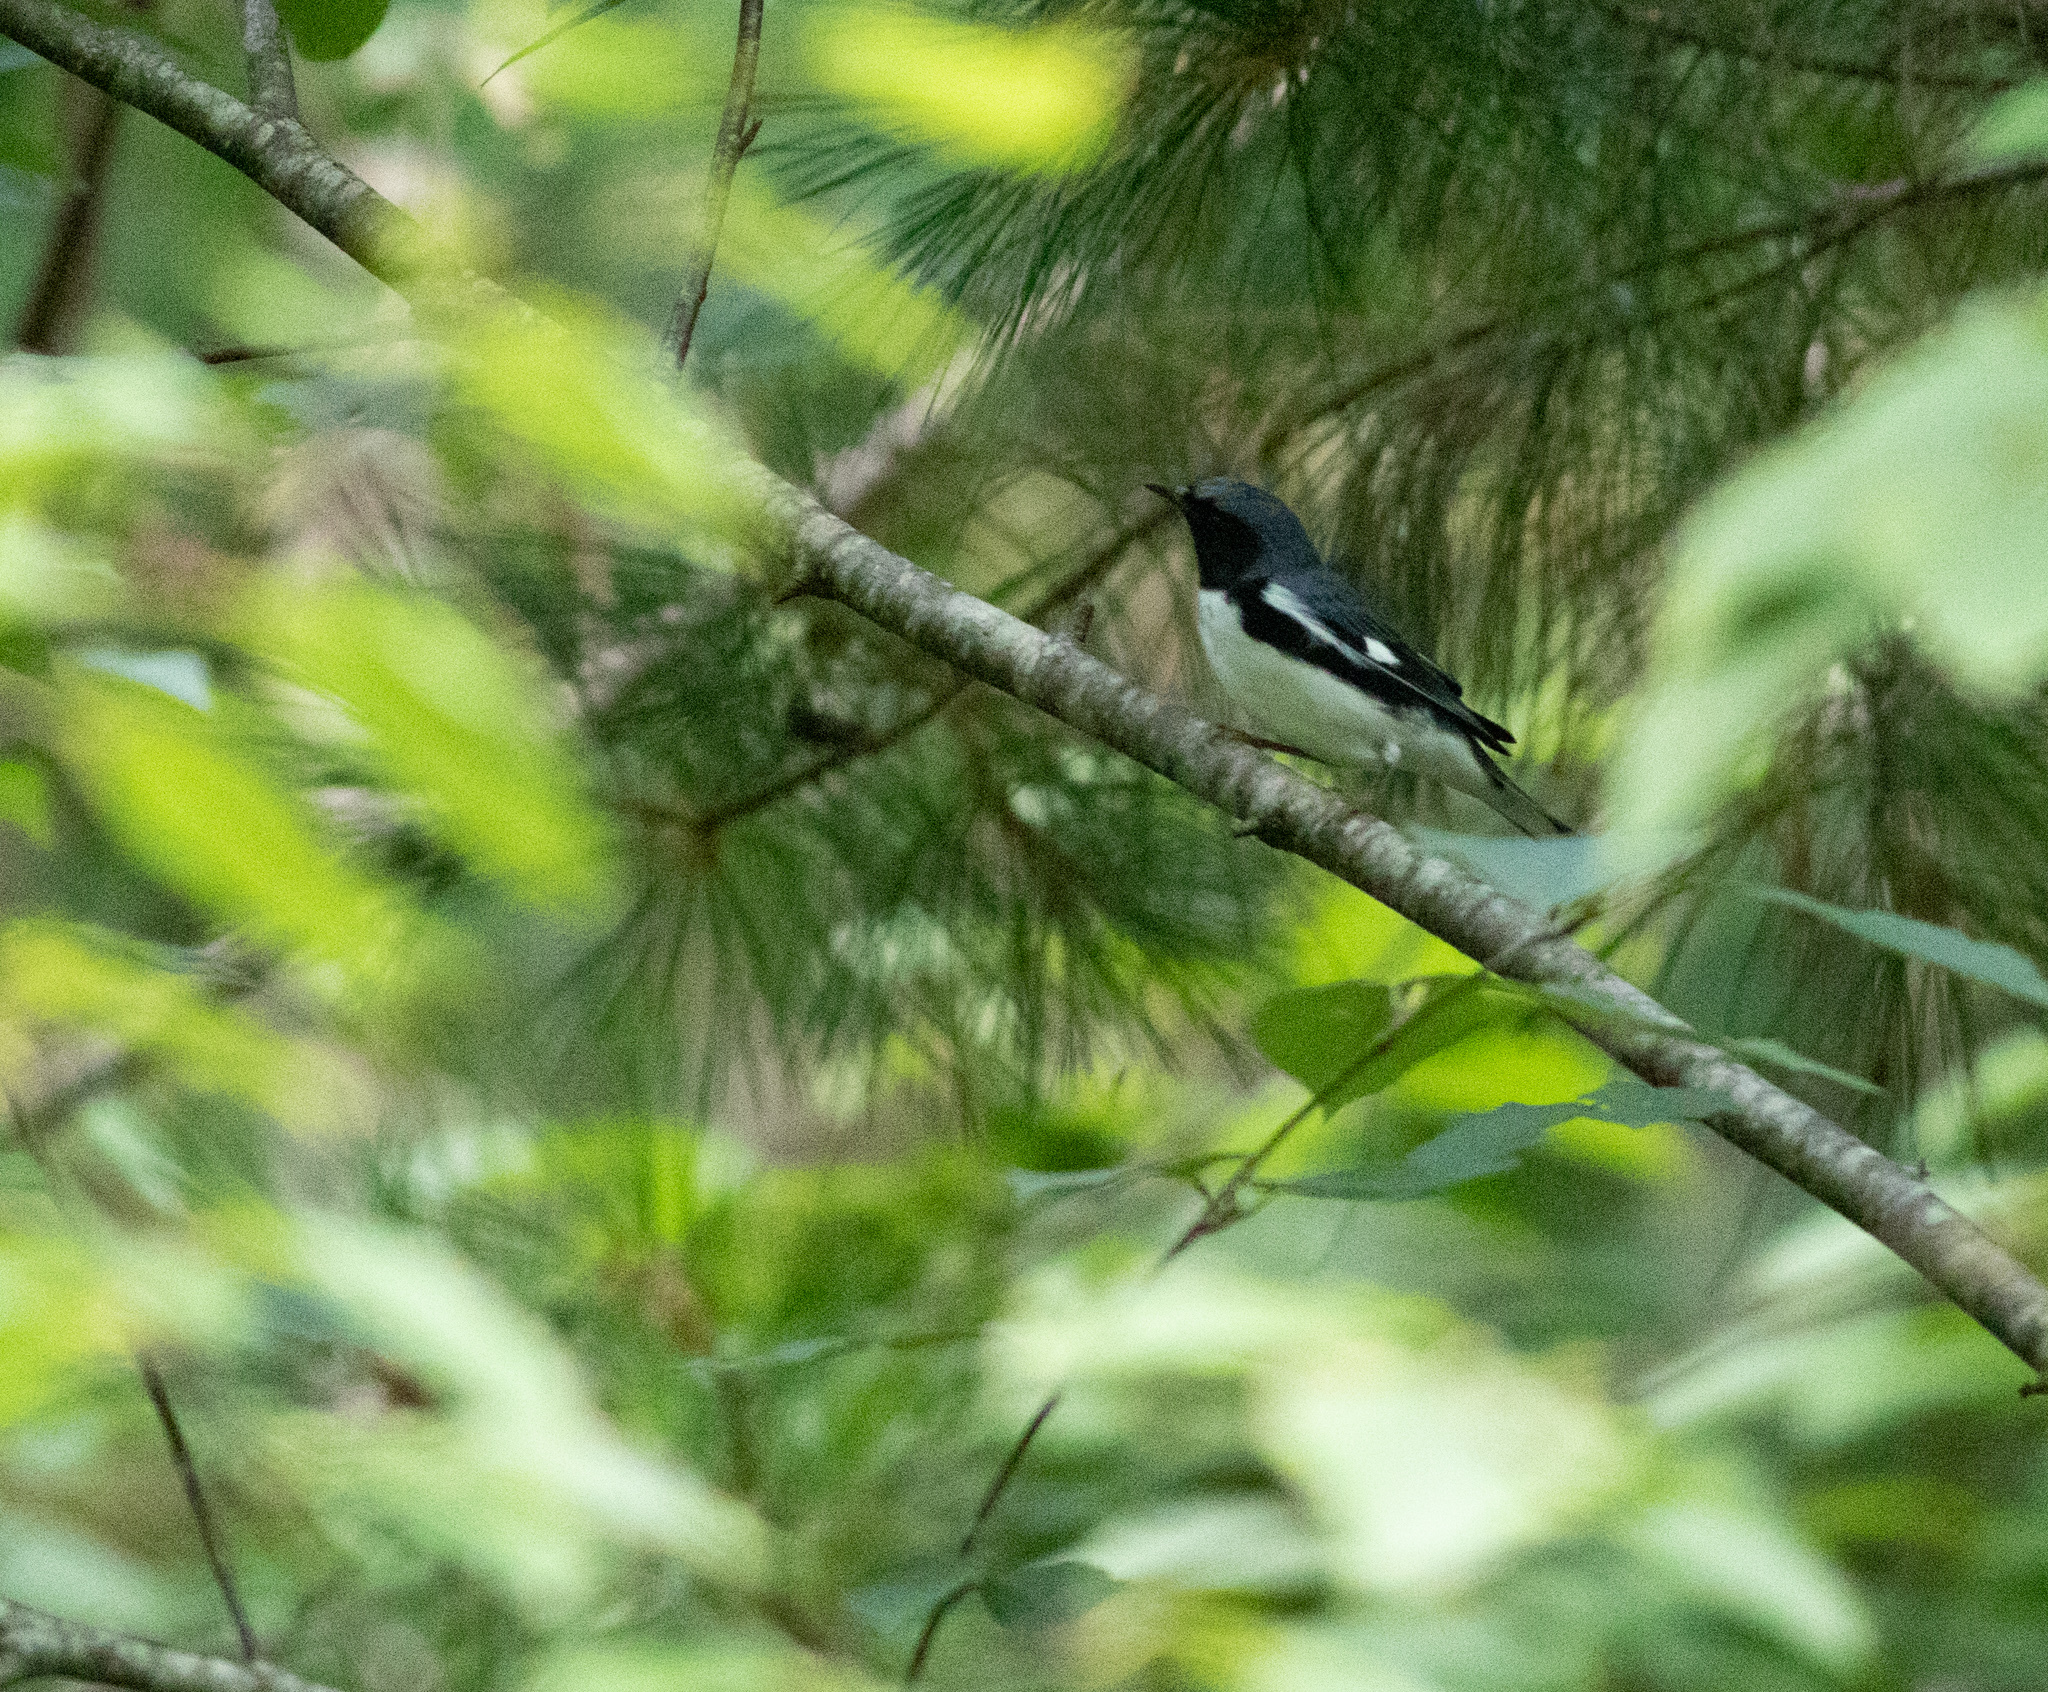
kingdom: Animalia
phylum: Chordata
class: Aves
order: Passeriformes
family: Parulidae
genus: Setophaga
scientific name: Setophaga caerulescens
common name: Black-throated blue warbler
